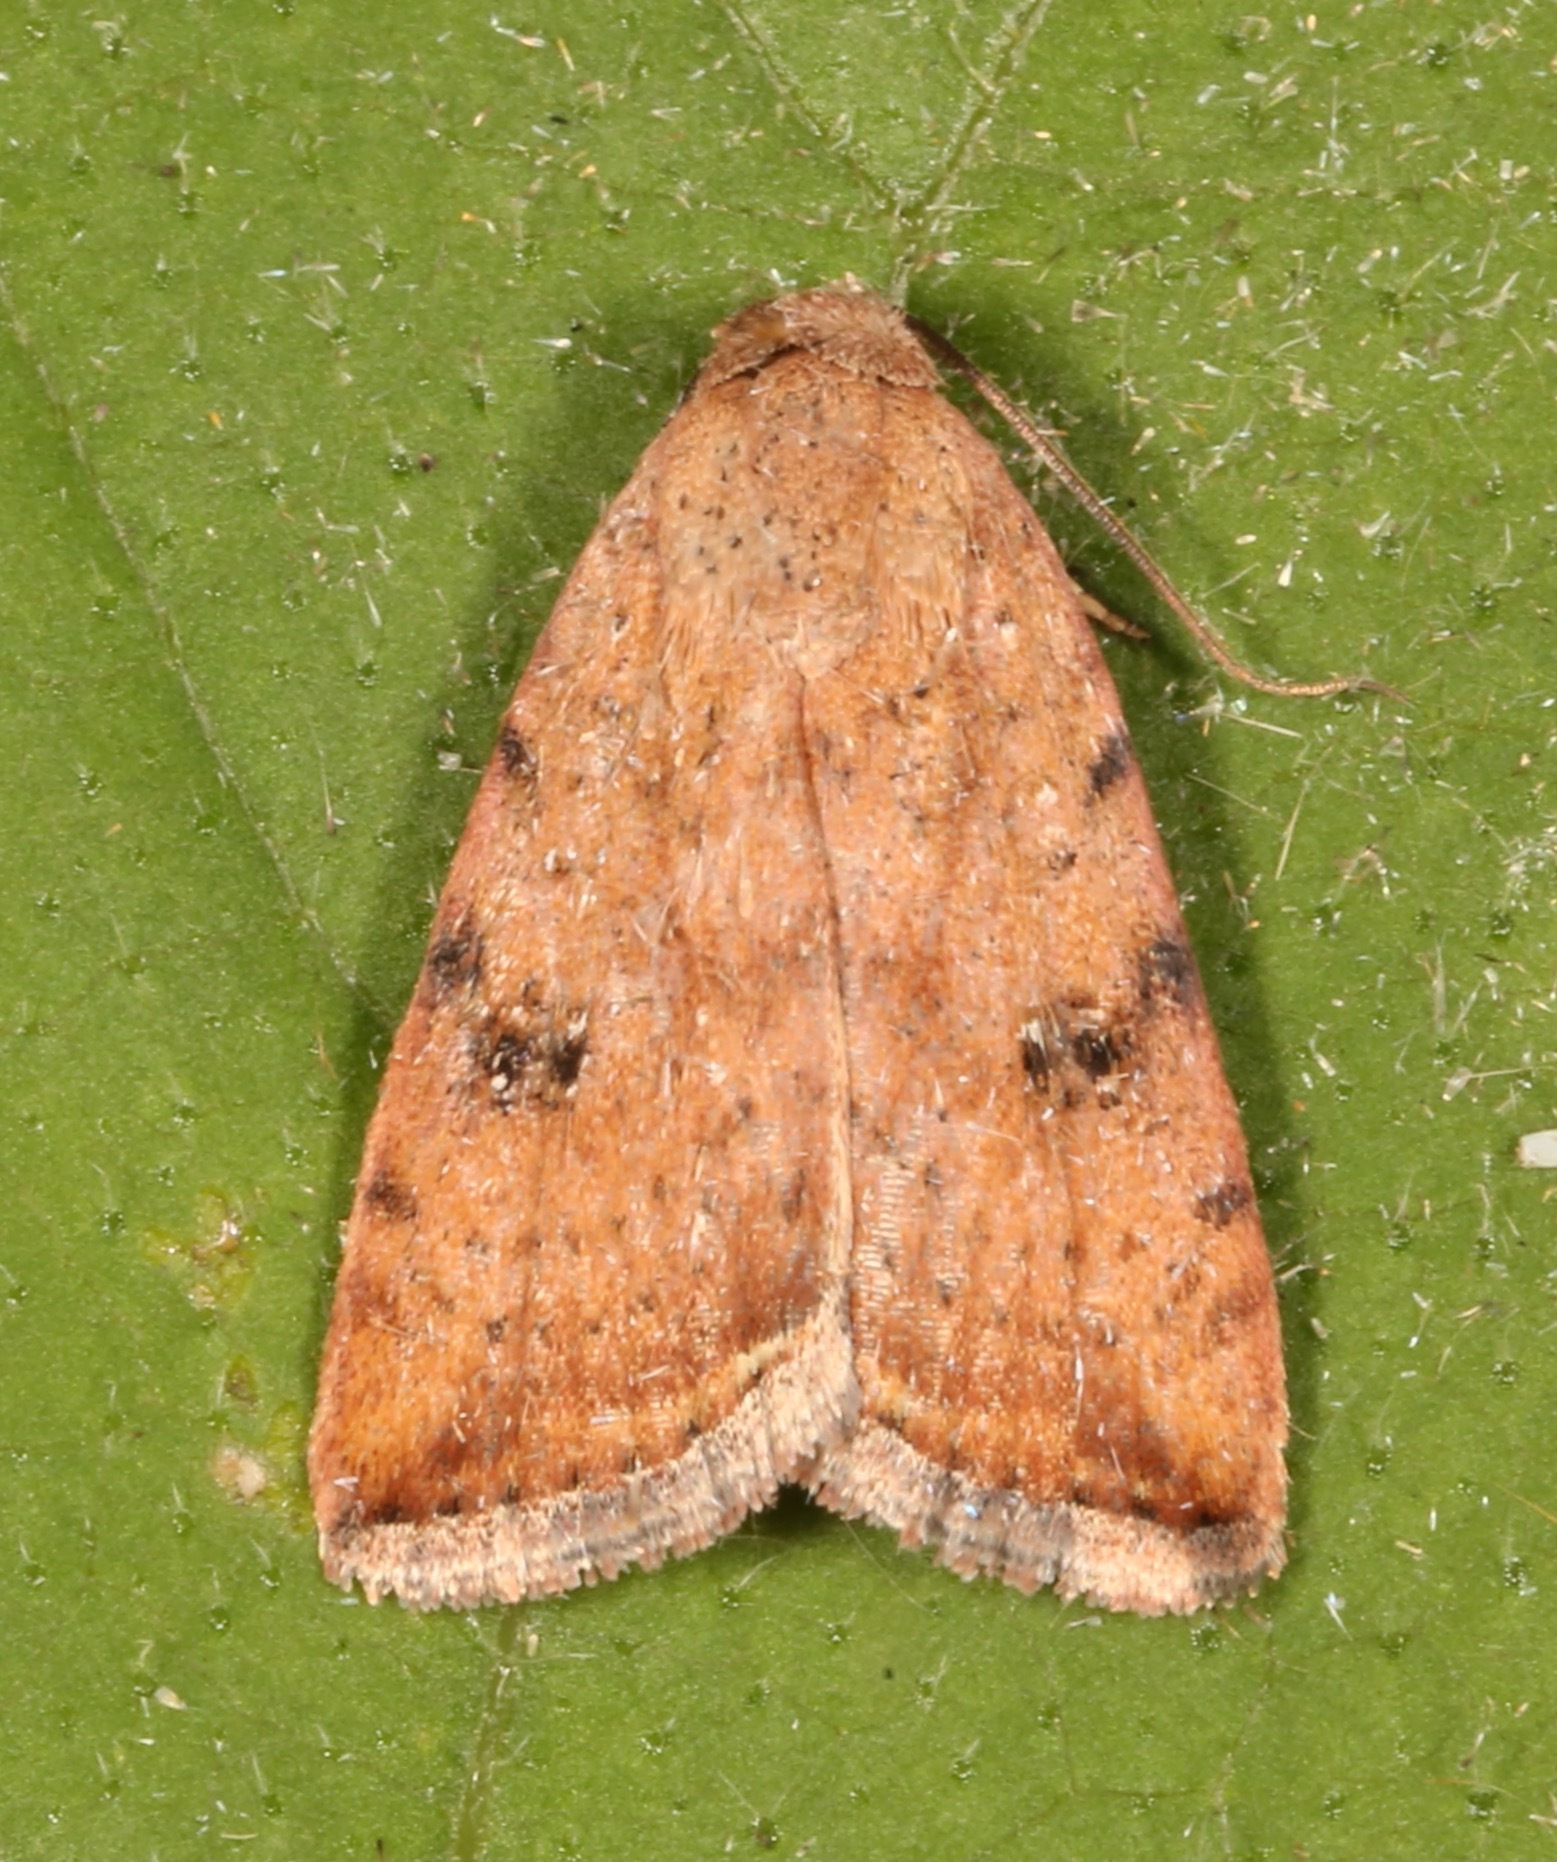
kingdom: Animalia
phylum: Arthropoda
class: Insecta
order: Lepidoptera
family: Noctuidae
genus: Micrathetis
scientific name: Micrathetis triplex
